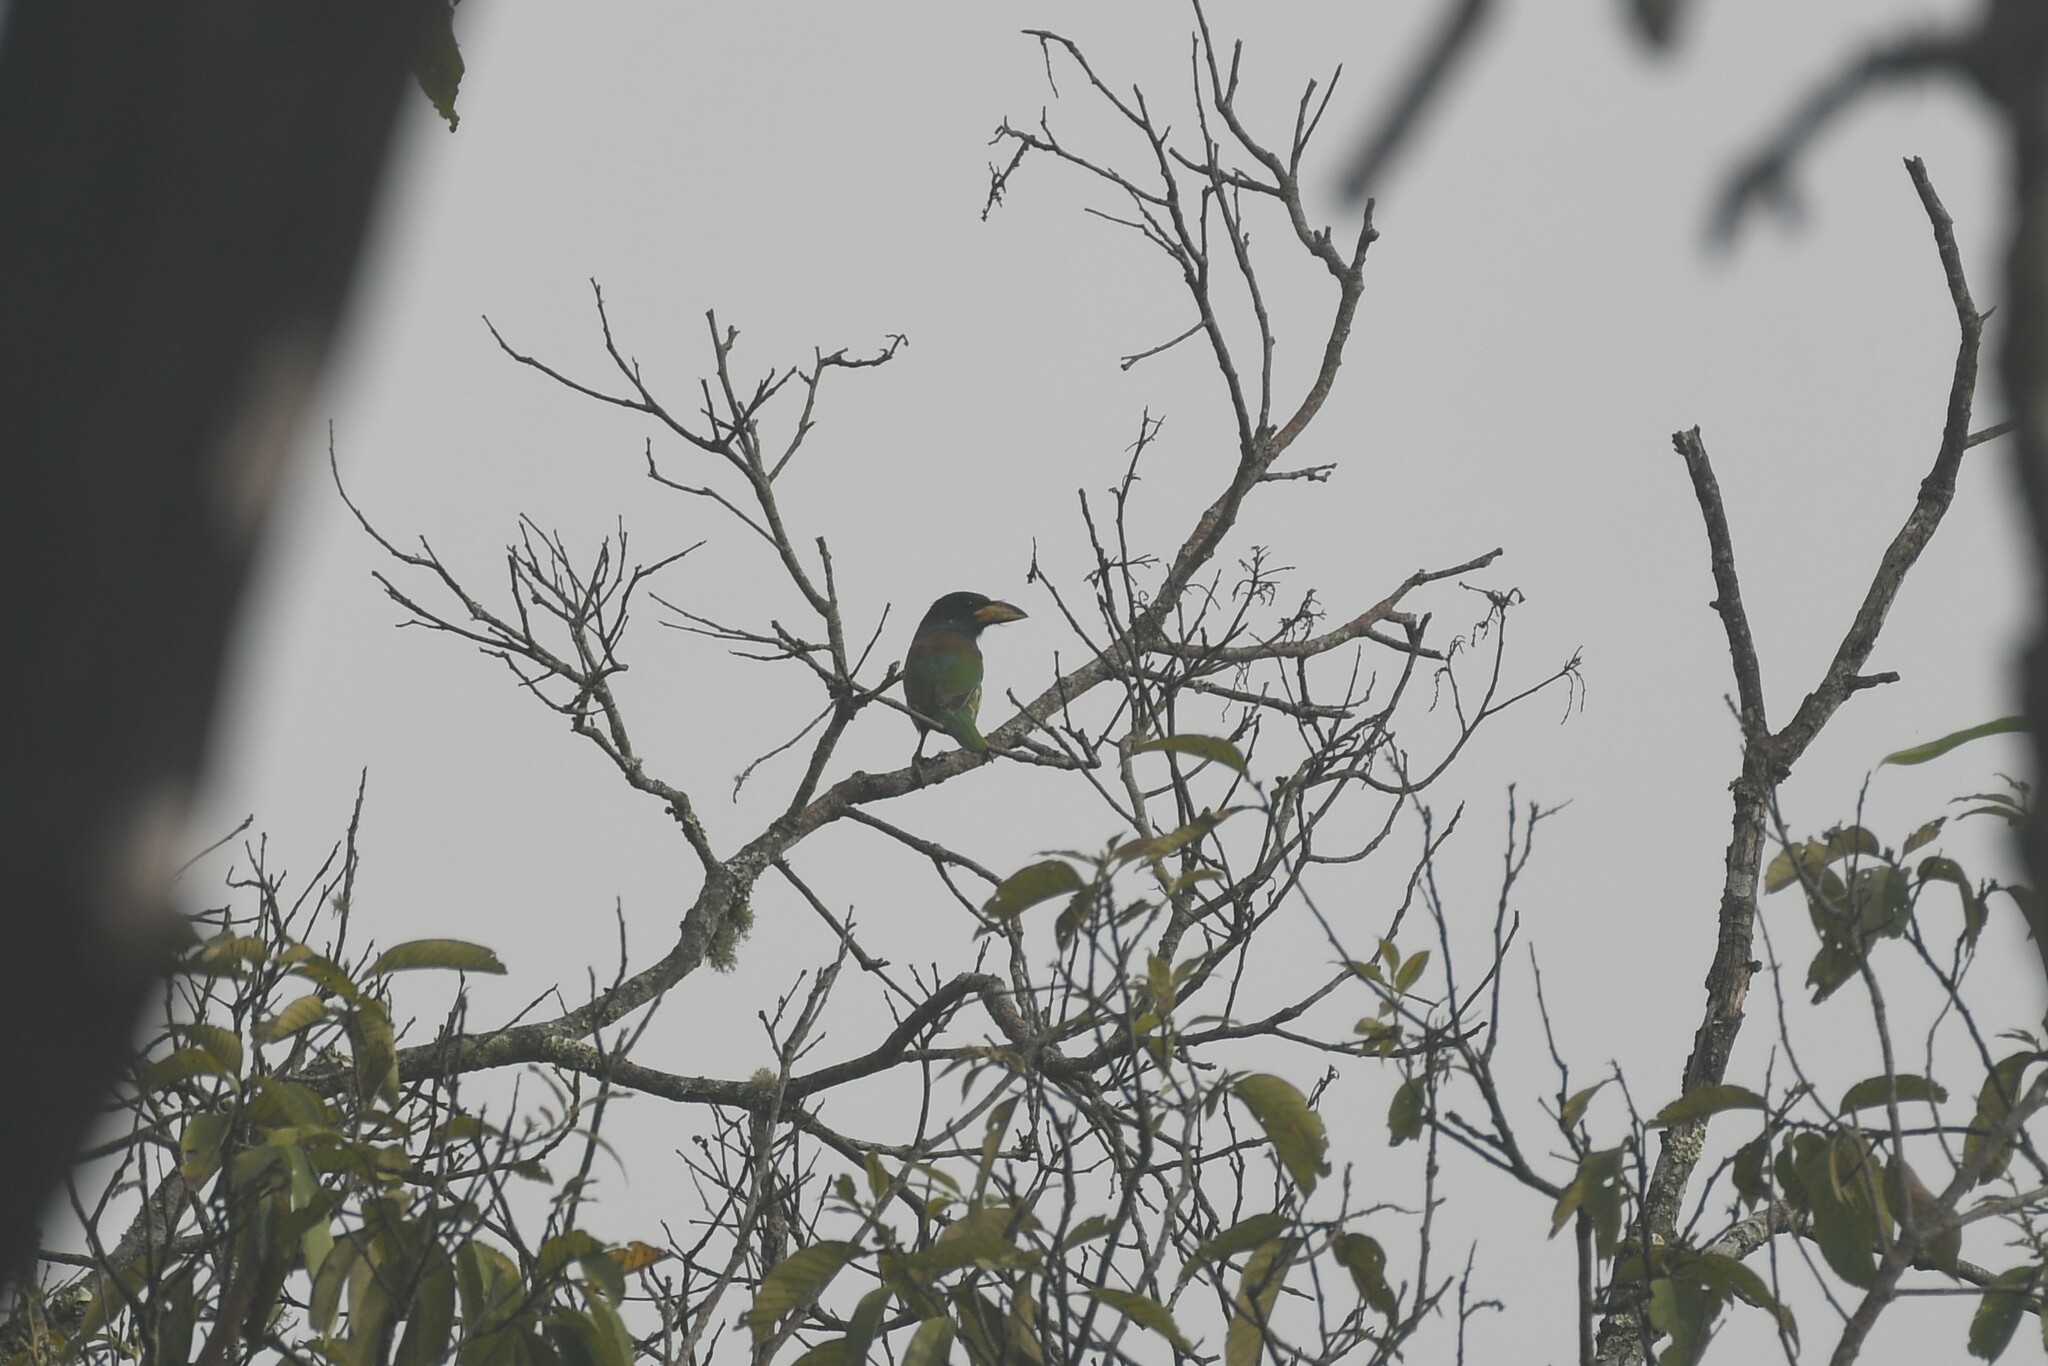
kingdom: Animalia
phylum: Chordata
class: Aves
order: Piciformes
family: Megalaimidae
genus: Psilopogon
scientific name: Psilopogon virens
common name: Great barbet
